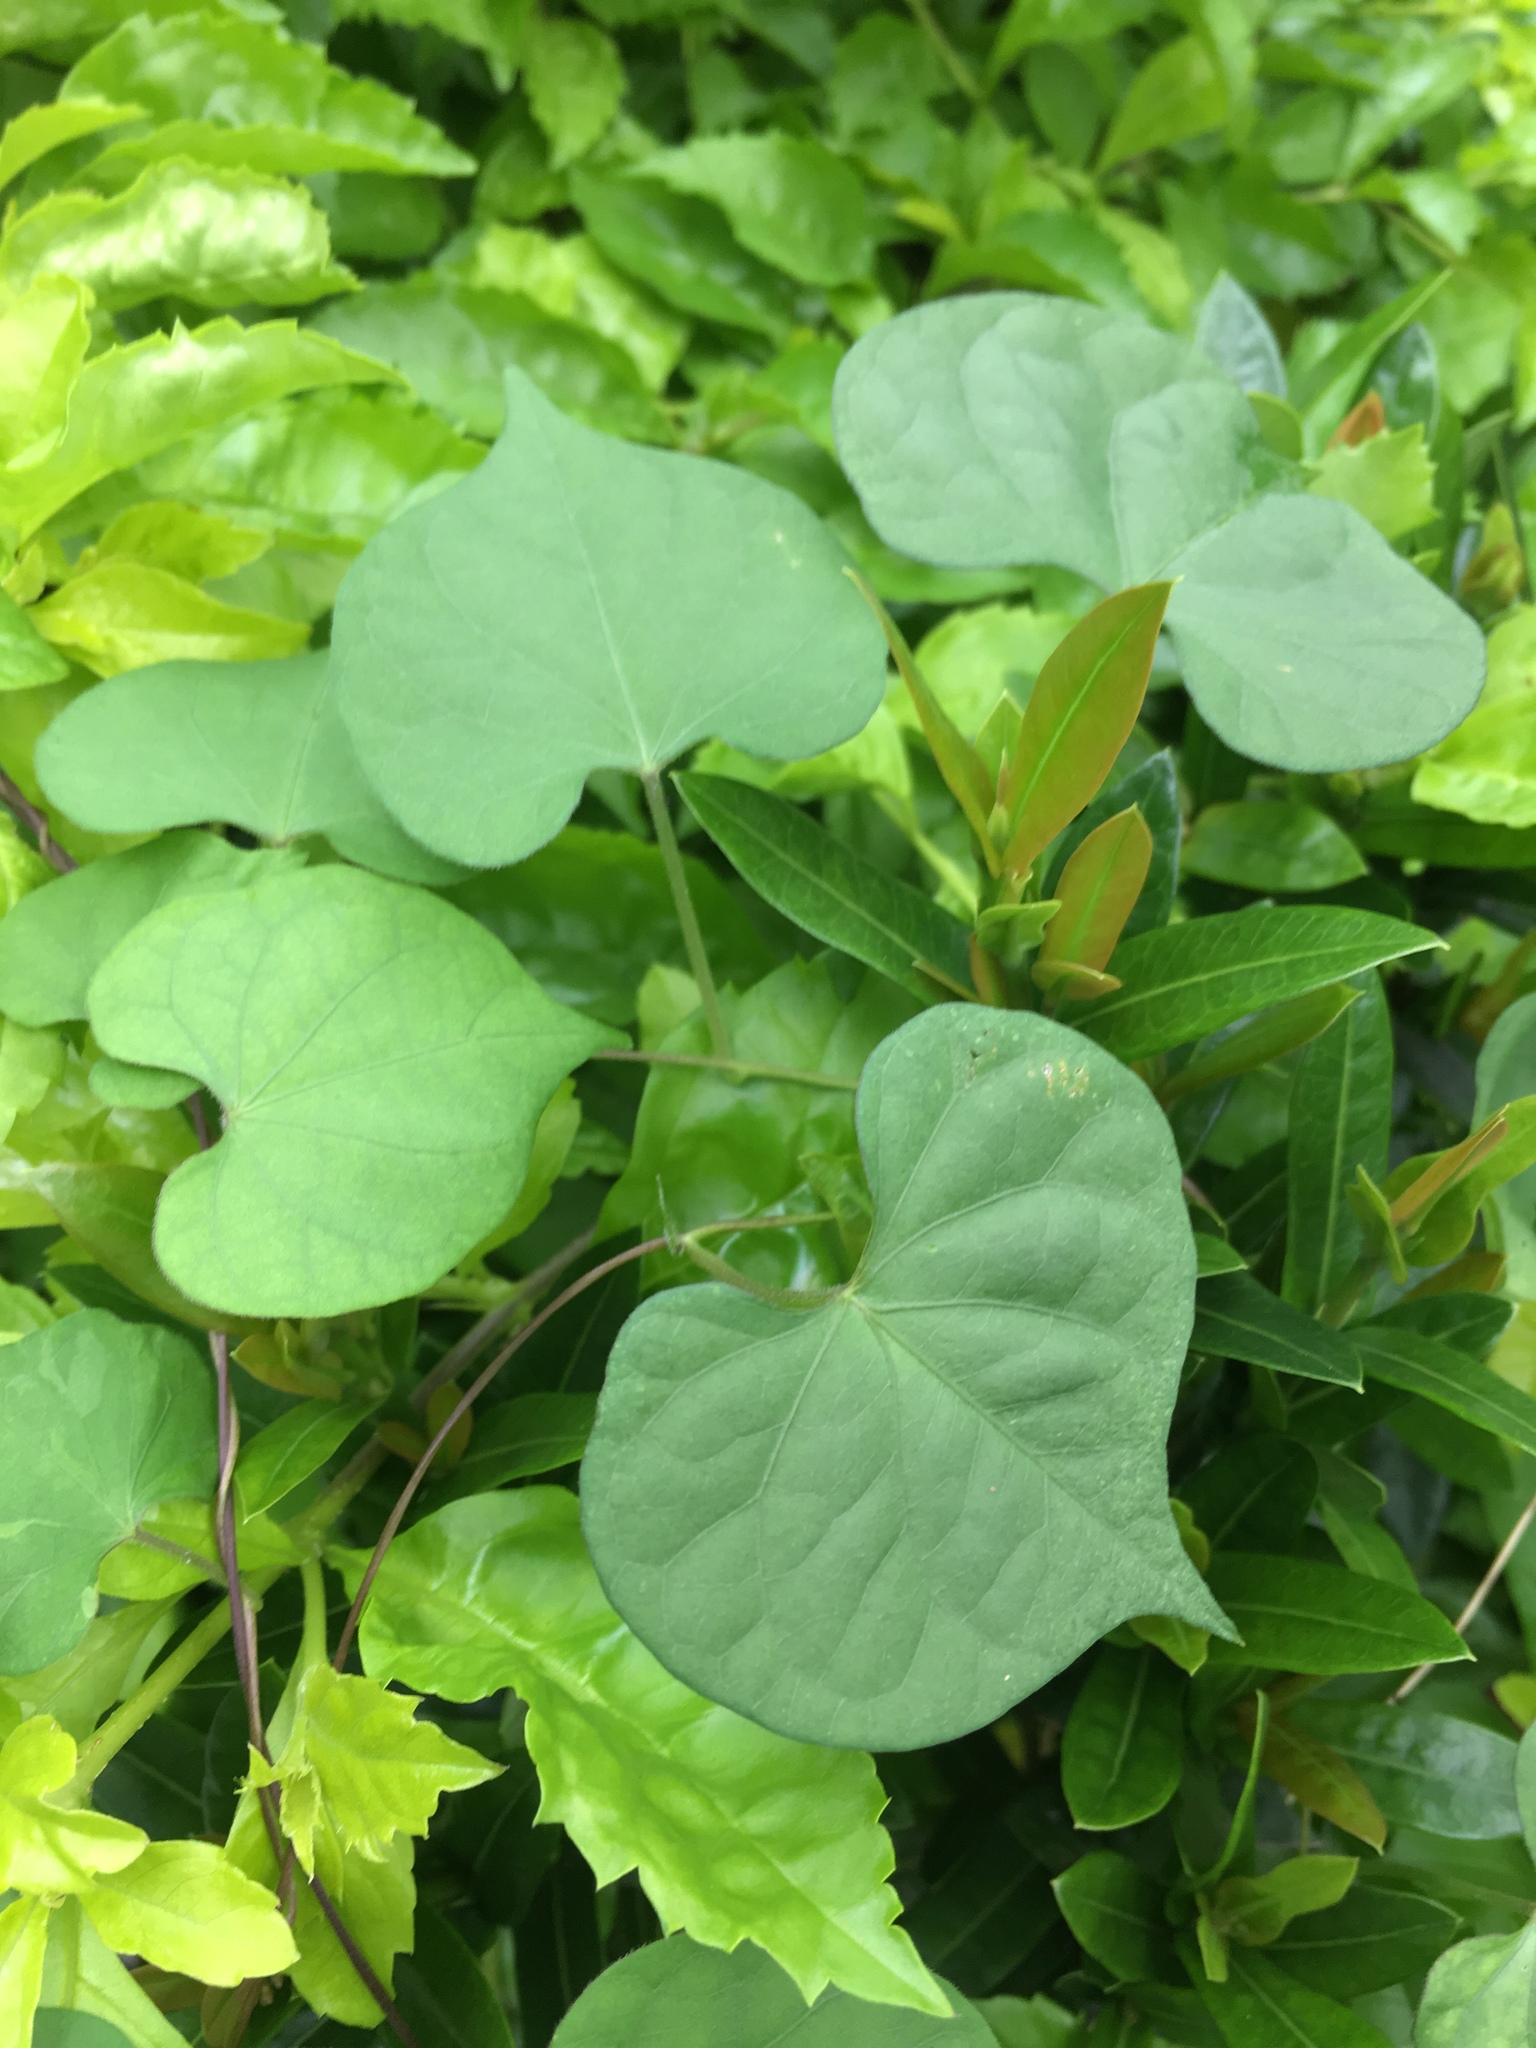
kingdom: Plantae
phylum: Tracheophyta
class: Magnoliopsida
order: Solanales
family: Convolvulaceae
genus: Ipomoea
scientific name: Ipomoea obscura
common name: Obscure morning-glory
